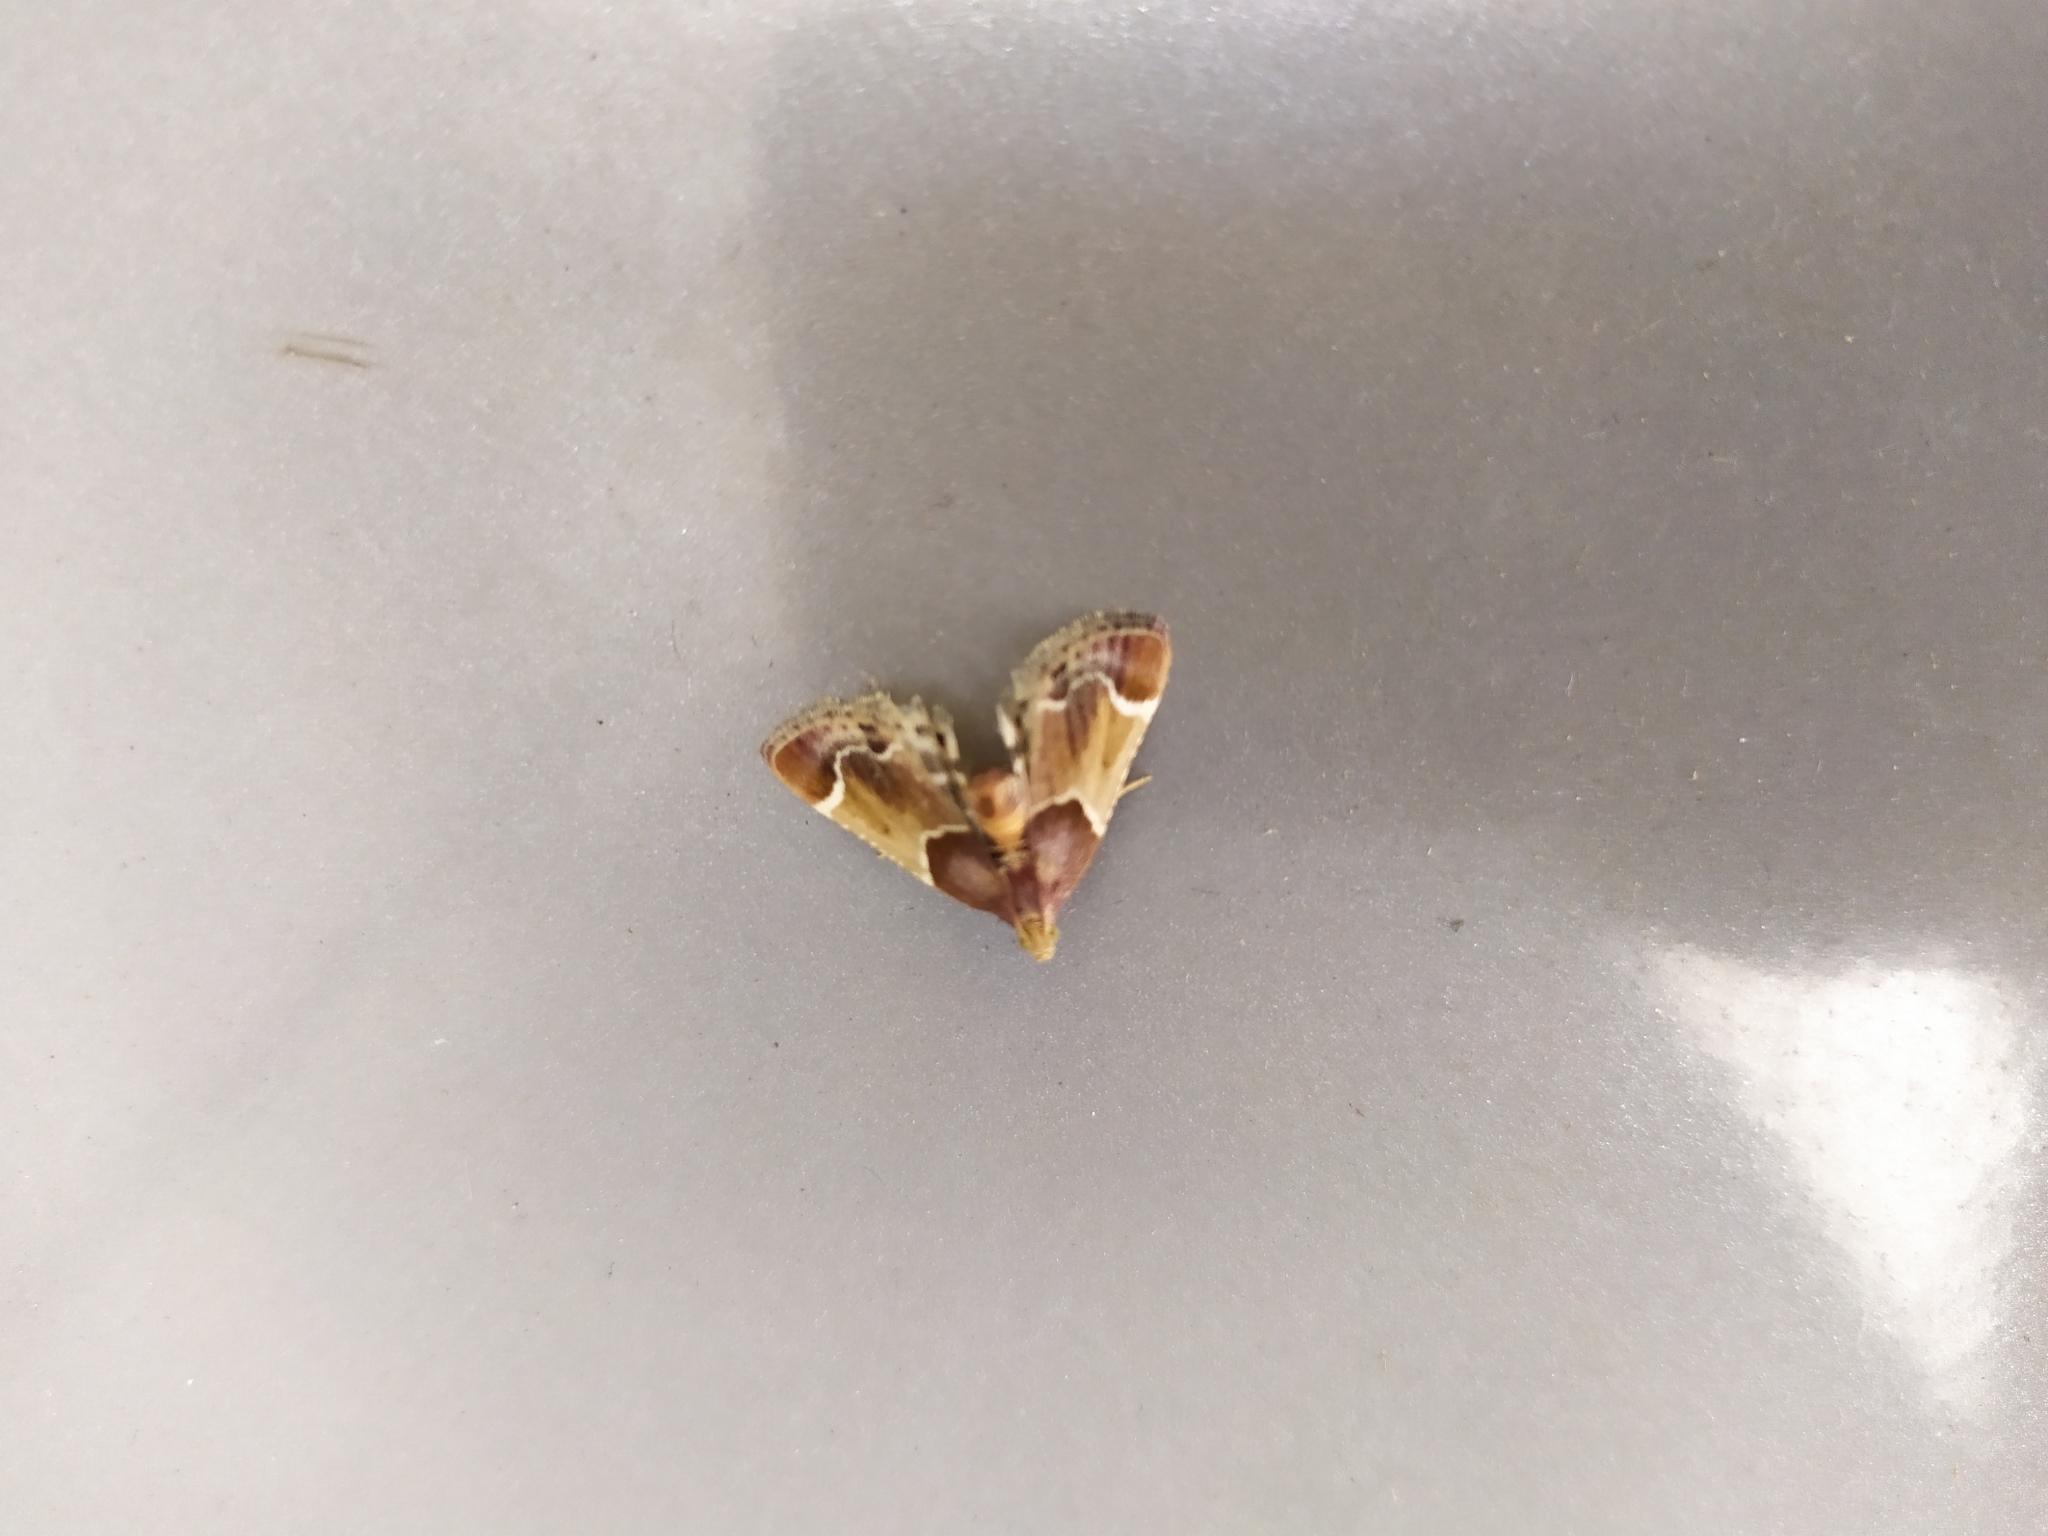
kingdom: Animalia
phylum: Arthropoda
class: Insecta
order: Lepidoptera
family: Pyralidae
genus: Pyralis
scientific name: Pyralis farinalis
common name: Meal moth
